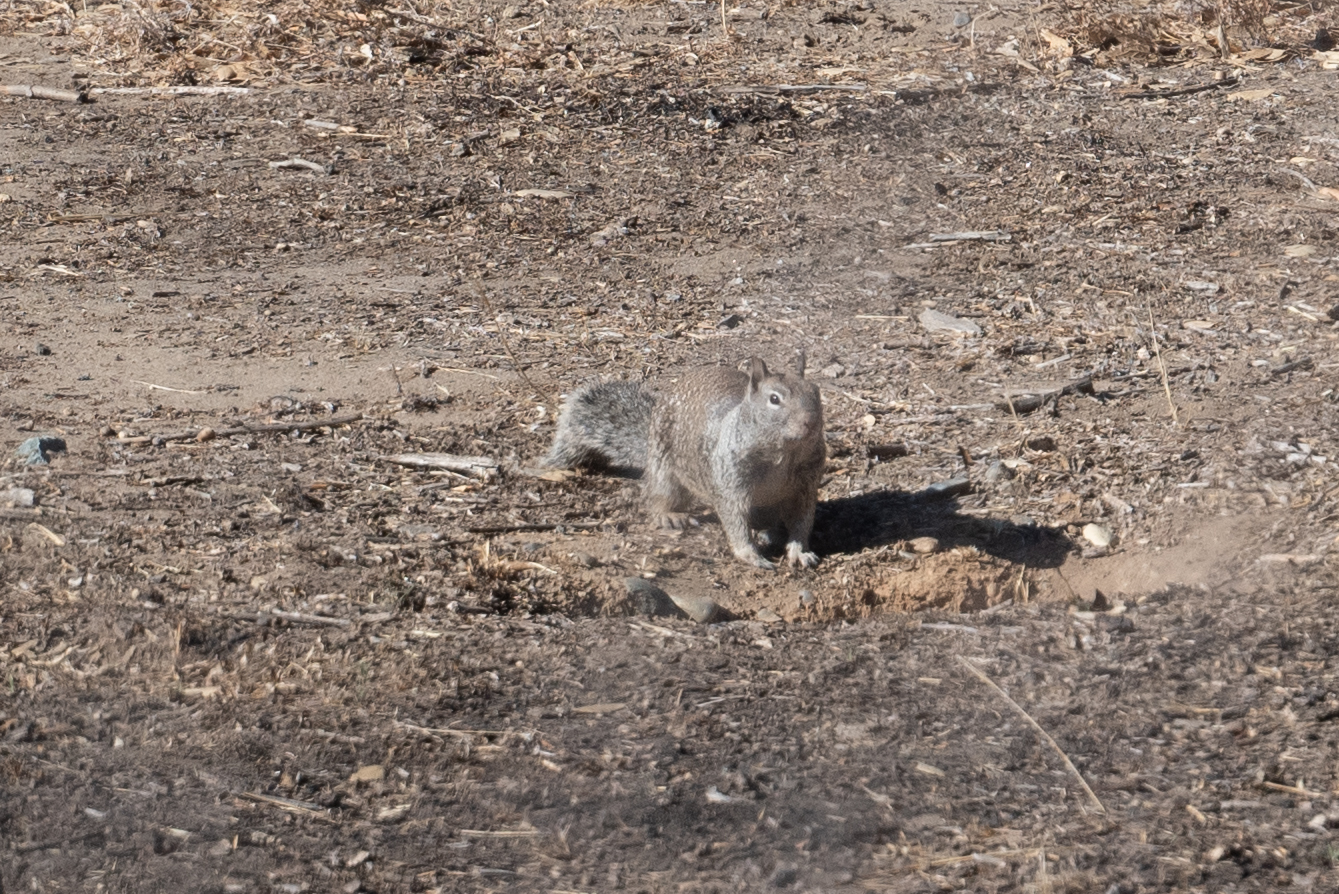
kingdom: Animalia
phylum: Chordata
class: Mammalia
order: Rodentia
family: Sciuridae
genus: Otospermophilus
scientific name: Otospermophilus beecheyi
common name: California ground squirrel
